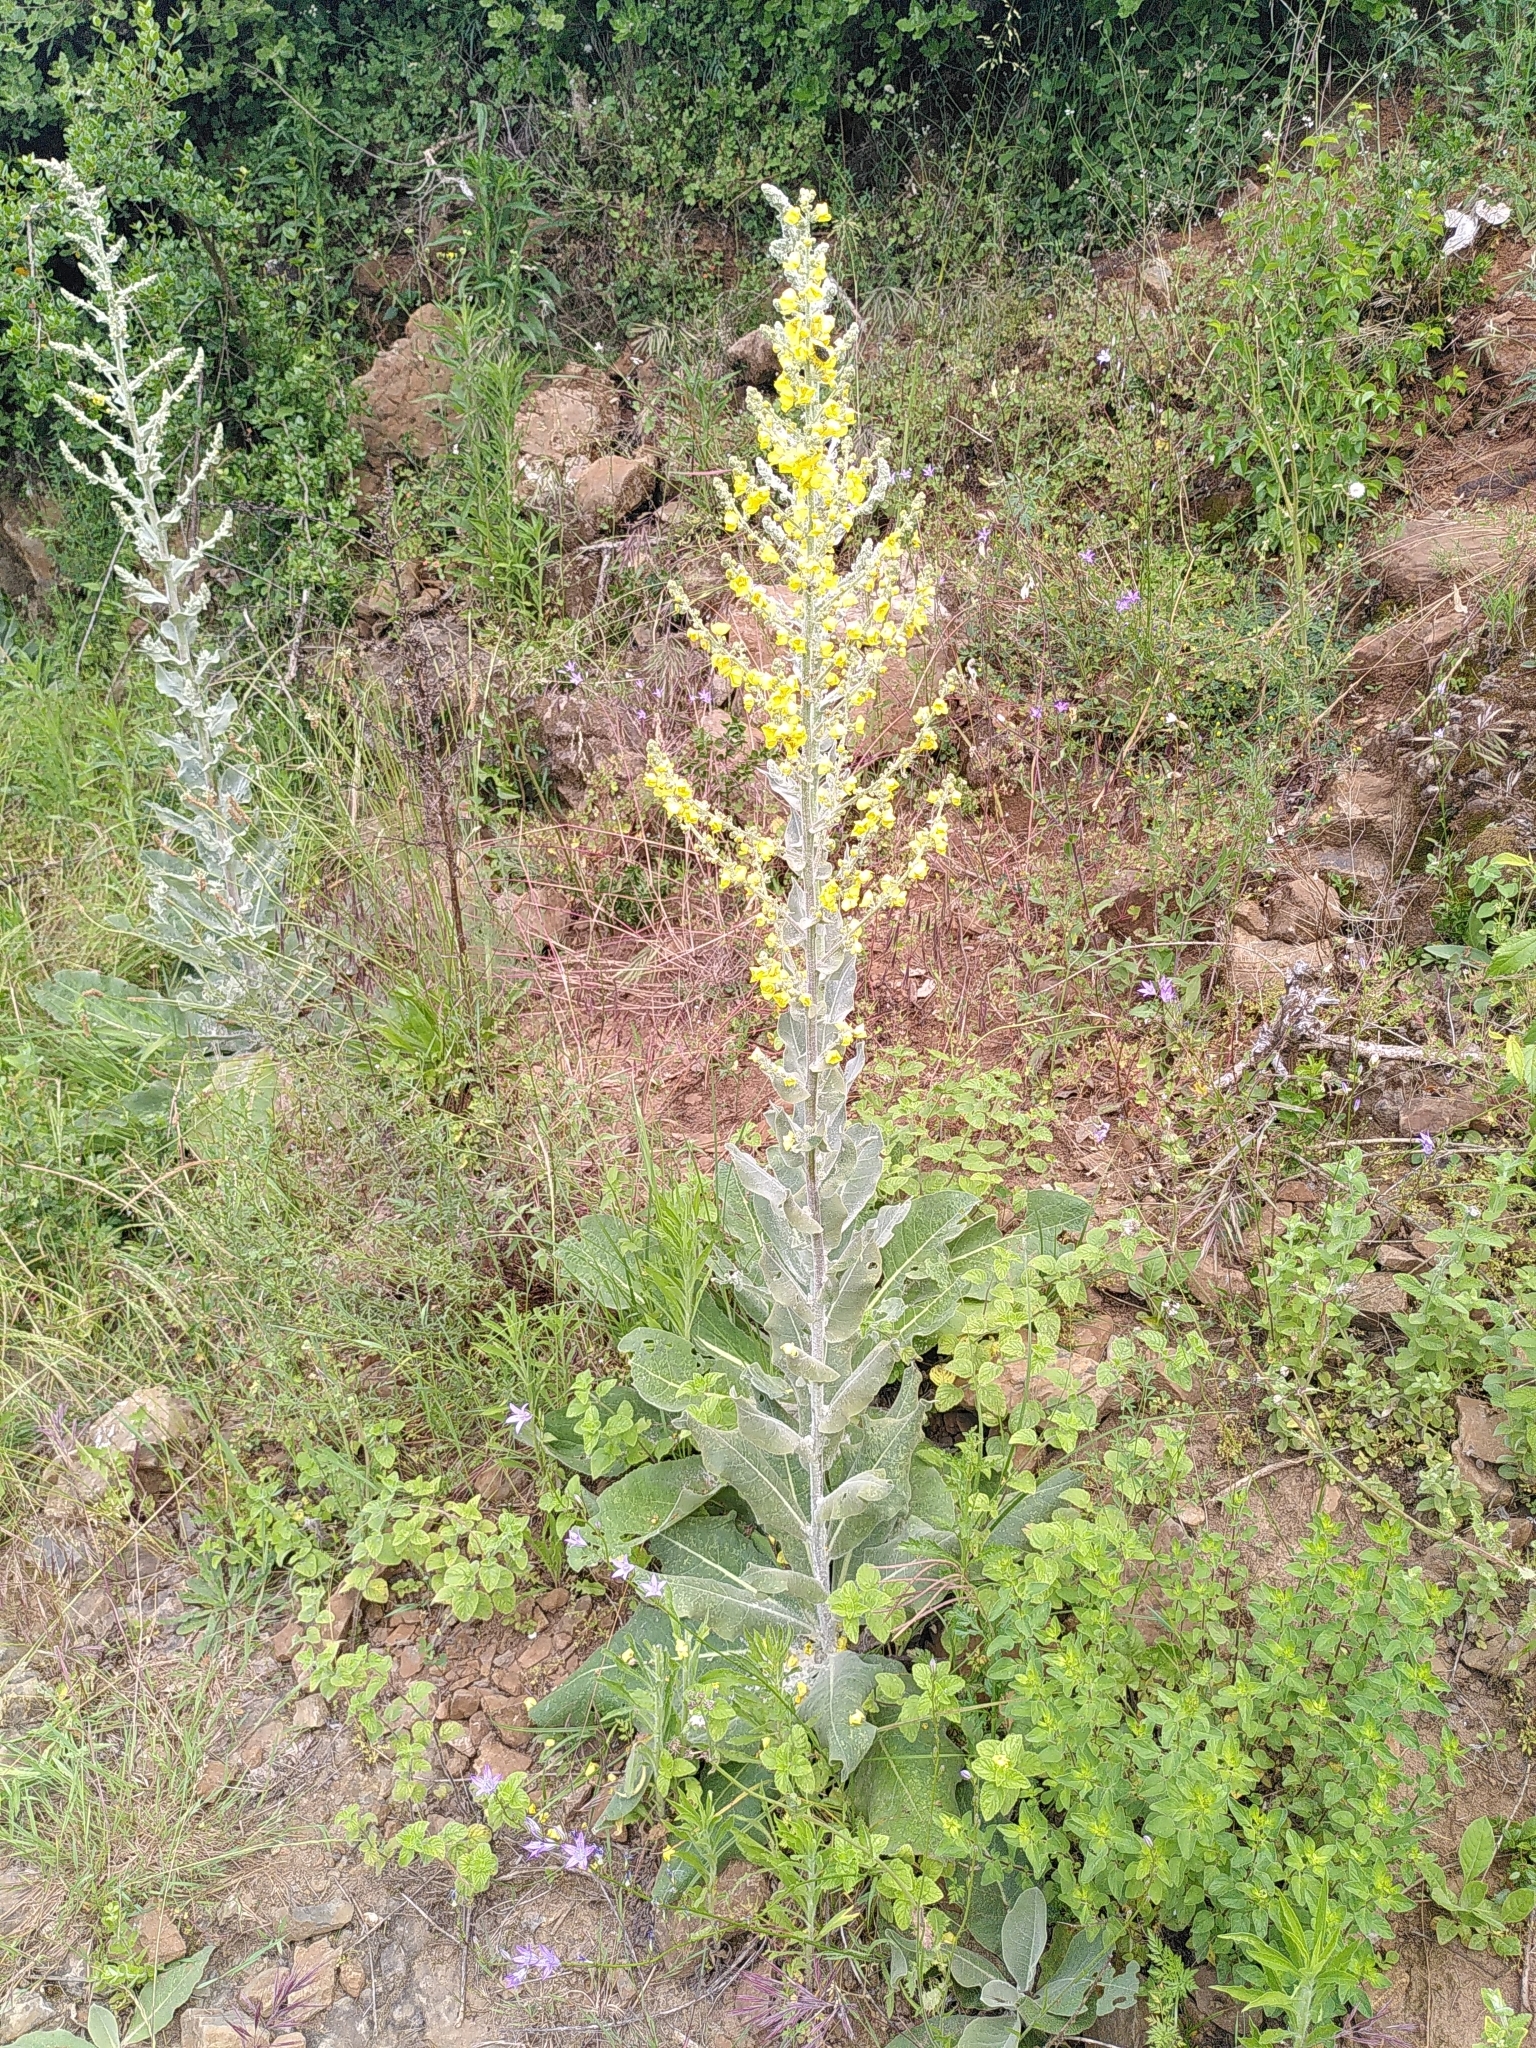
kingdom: Plantae
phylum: Tracheophyta
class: Magnoliopsida
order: Lamiales
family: Scrophulariaceae
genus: Verbascum
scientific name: Verbascum pulverulentum
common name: Broad-leaf mullein
